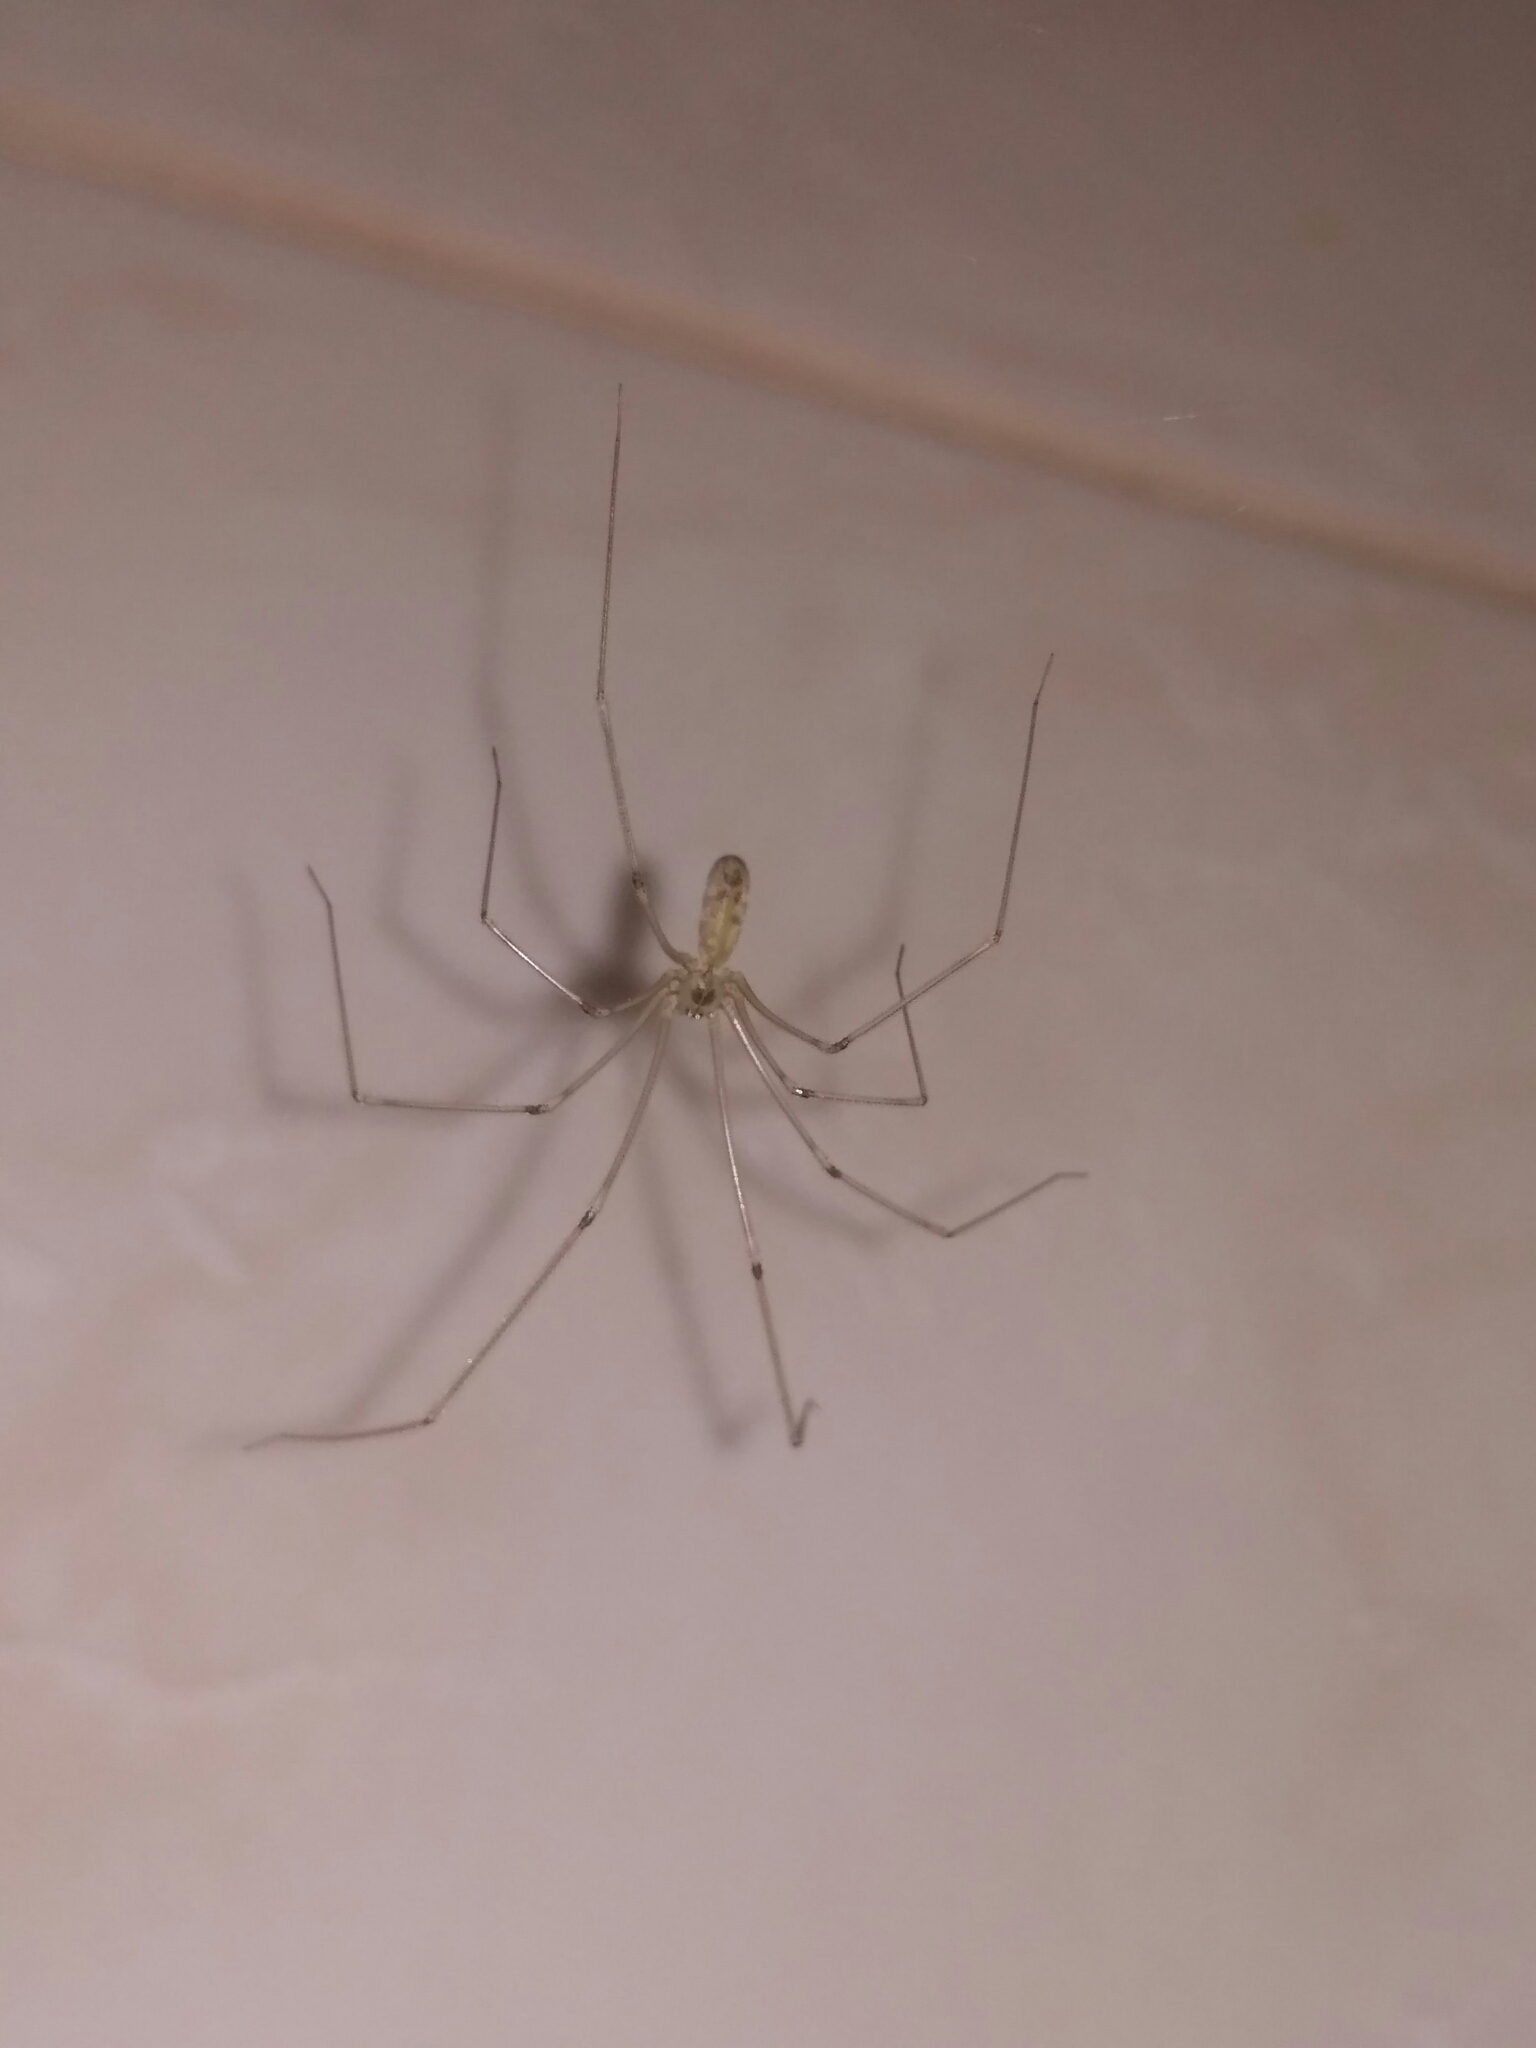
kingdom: Animalia
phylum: Arthropoda
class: Arachnida
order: Araneae
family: Pholcidae
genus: Pholcus
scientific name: Pholcus phalangioides
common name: Longbodied cellar spider
